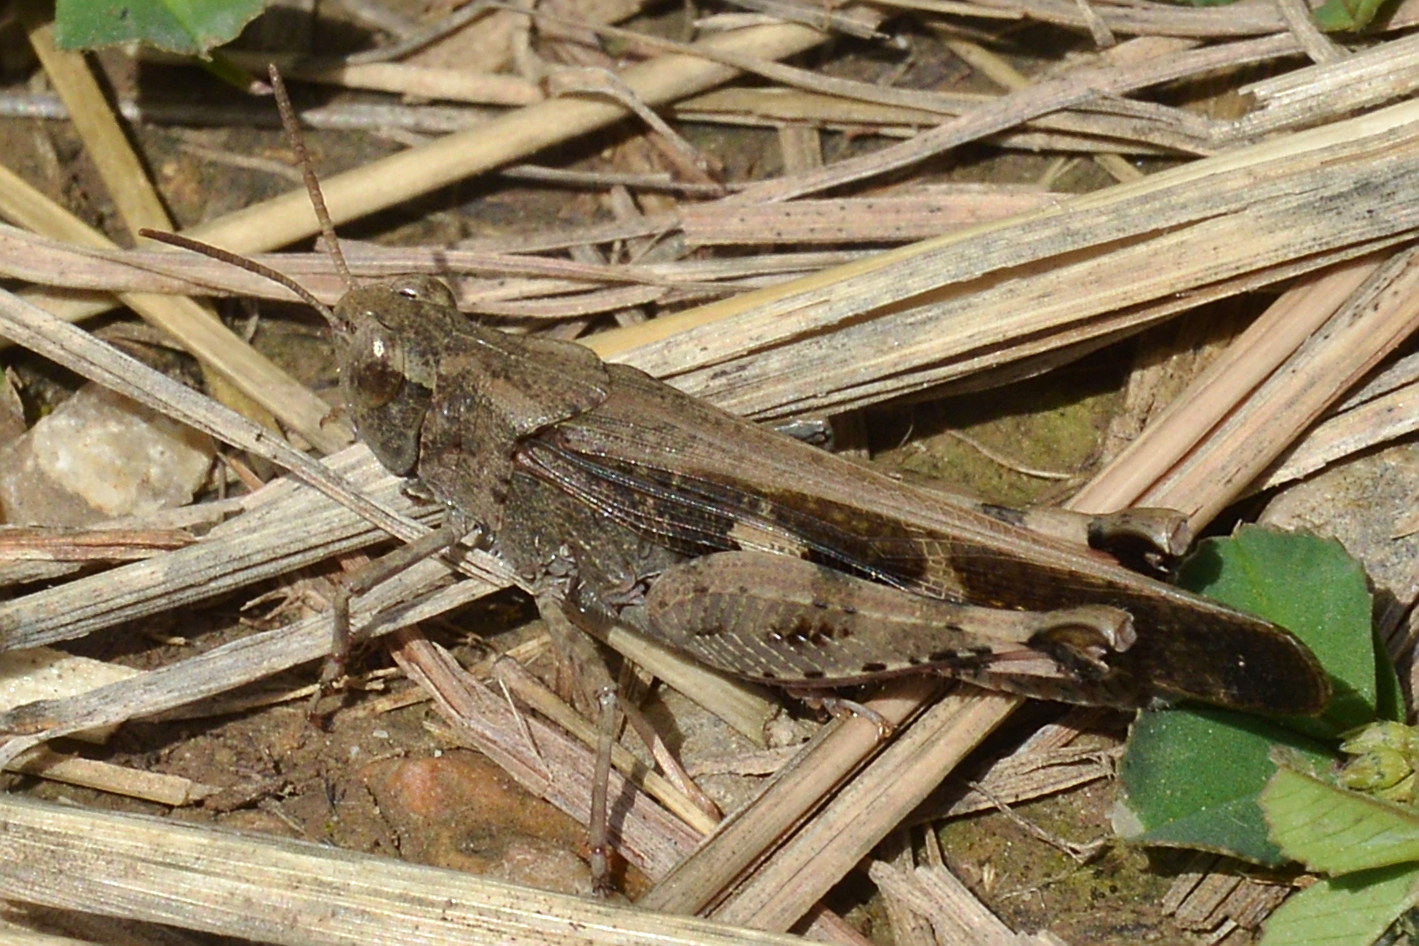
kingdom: Animalia
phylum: Arthropoda
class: Insecta
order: Orthoptera
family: Acrididae
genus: Aiolopus
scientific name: Aiolopus strepens
